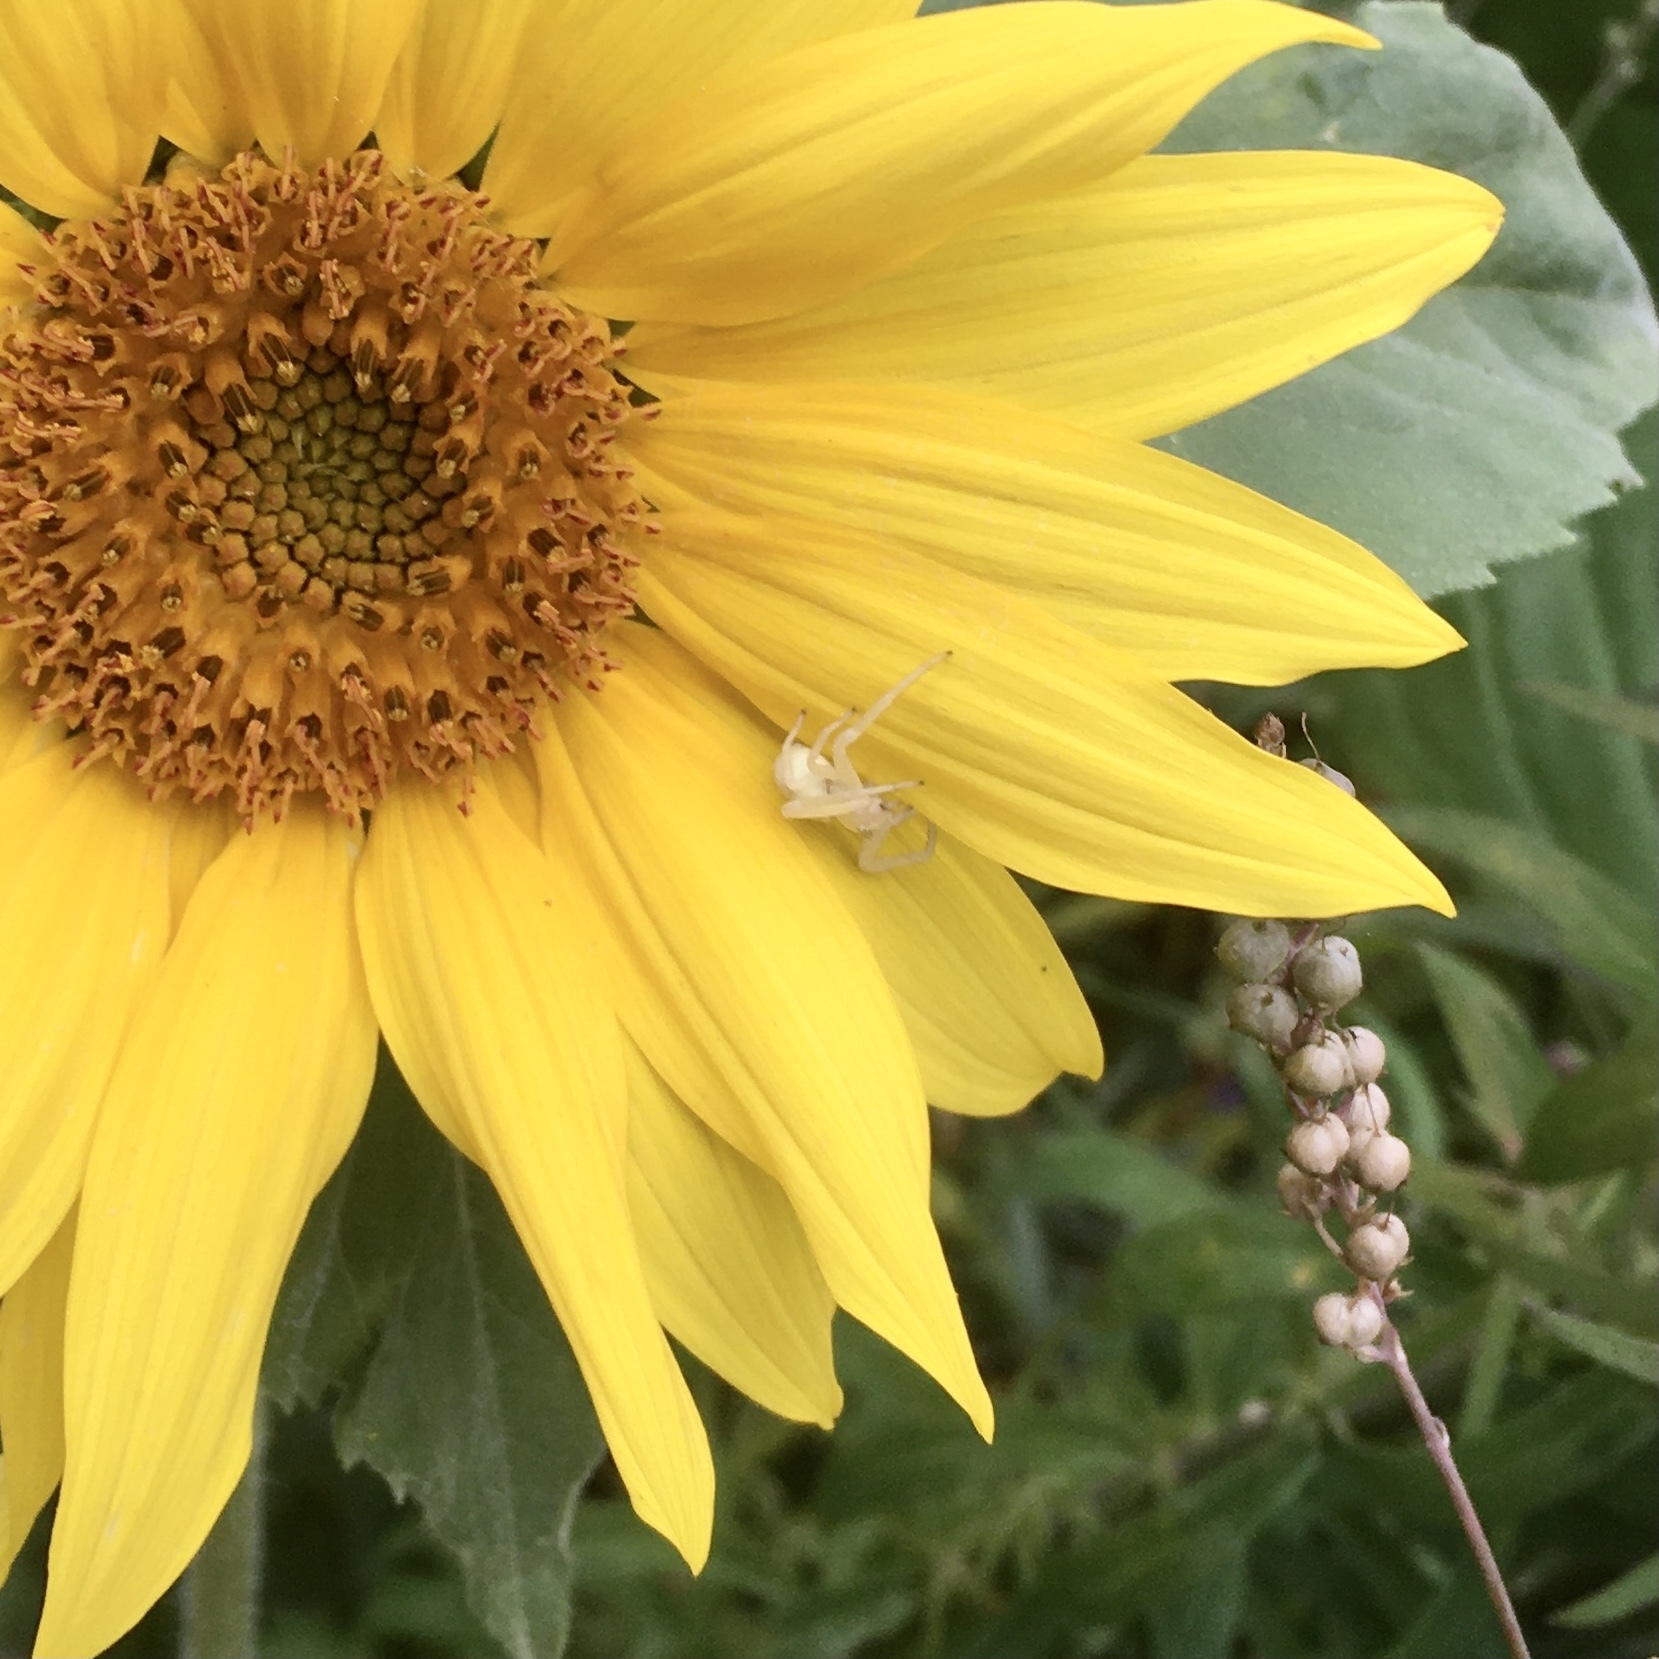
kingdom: Animalia
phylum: Arthropoda
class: Arachnida
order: Araneae
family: Thomisidae
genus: Misumena
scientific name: Misumena vatia
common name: Goldenrod crab spider
